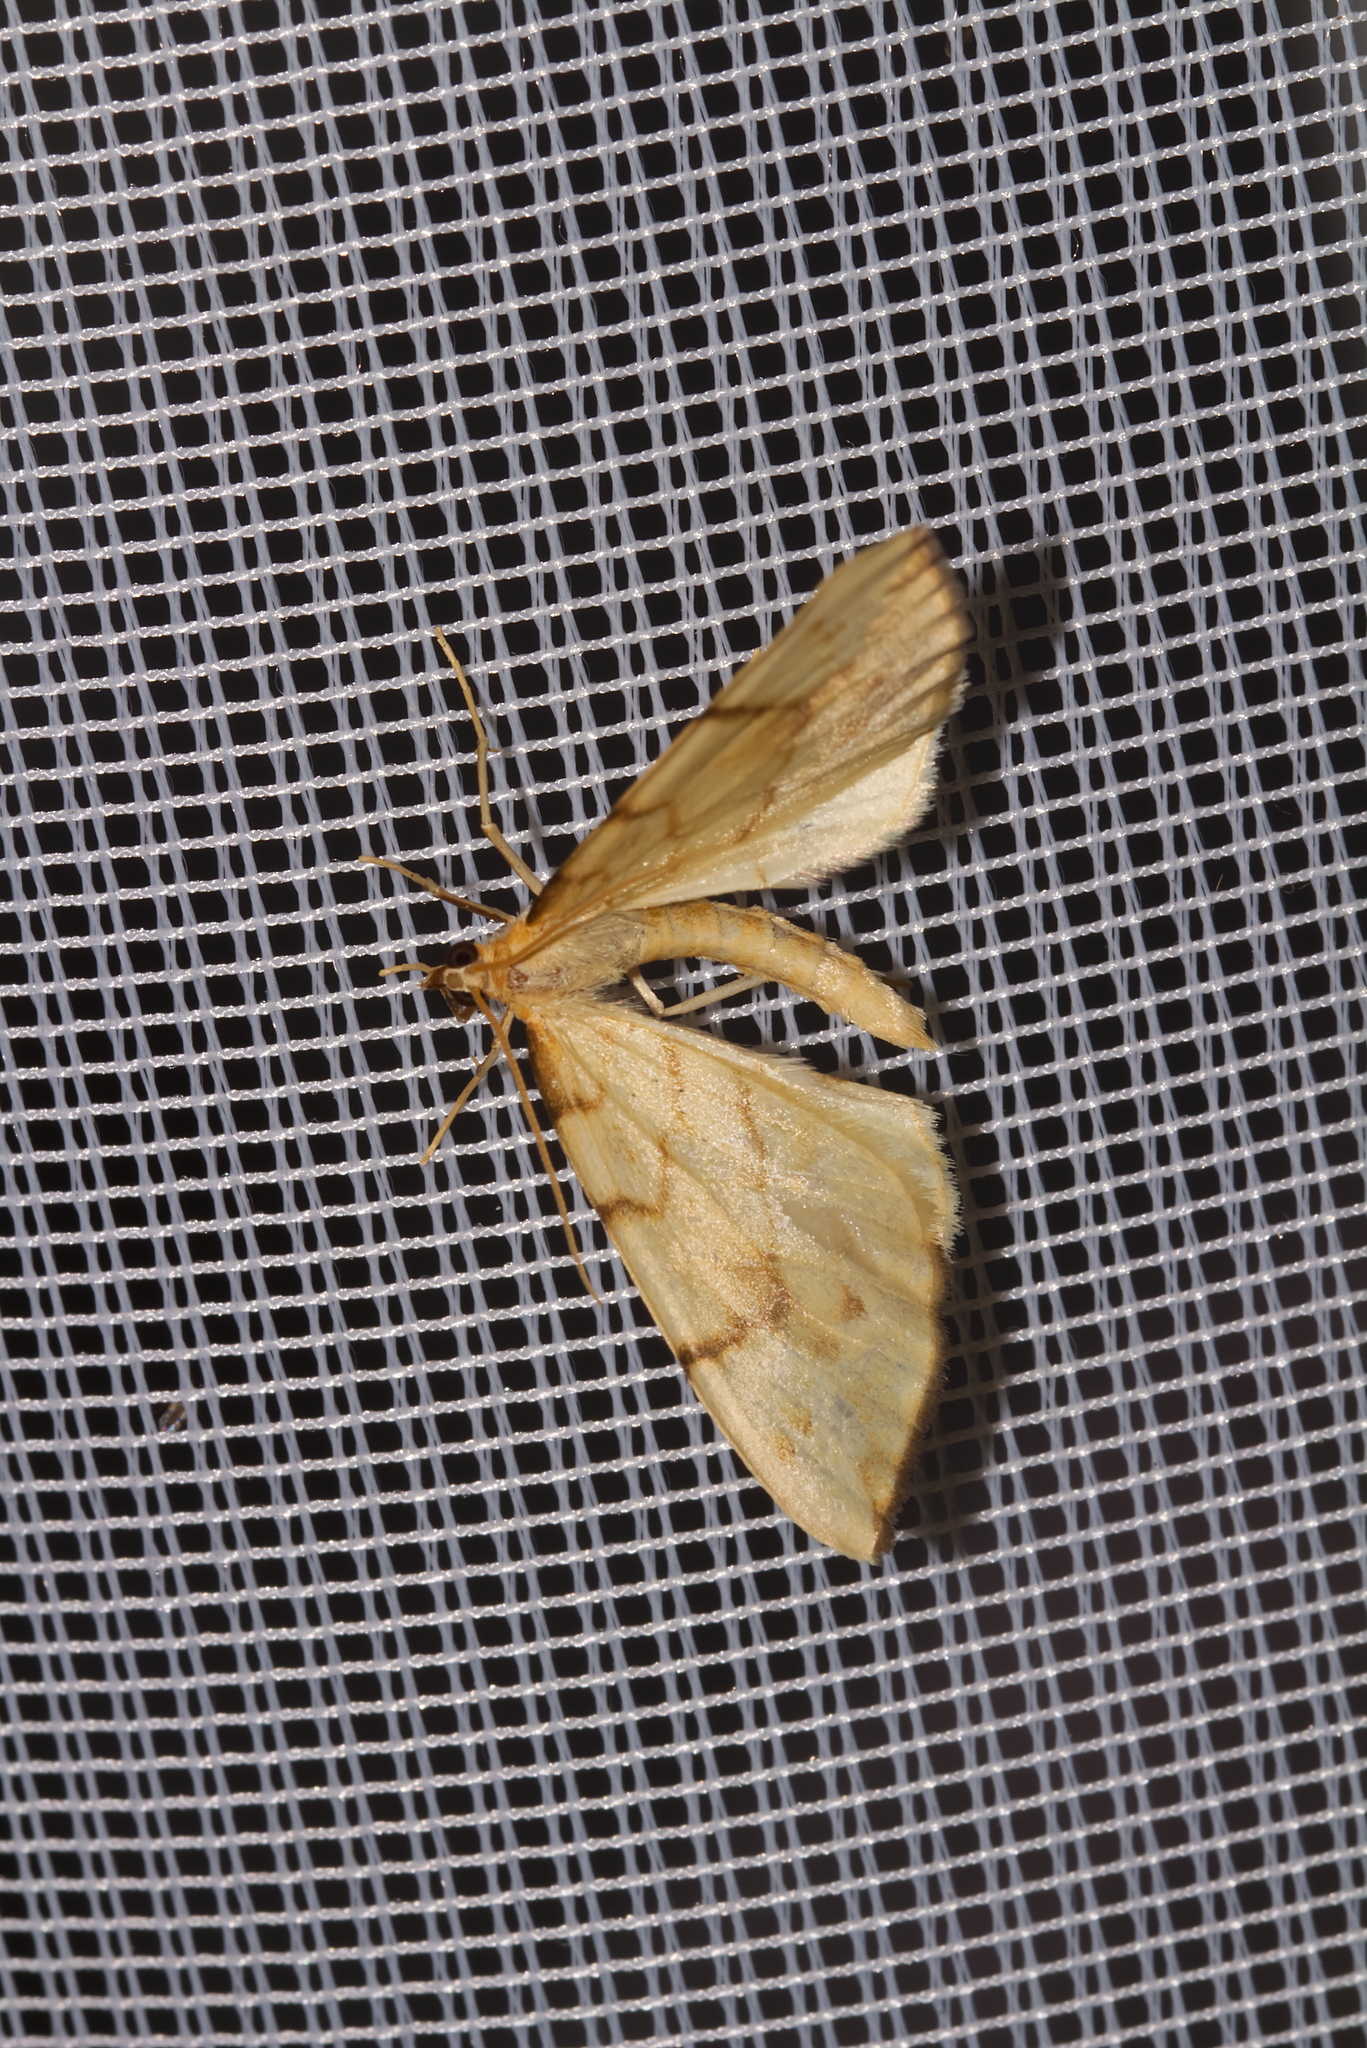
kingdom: Animalia
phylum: Arthropoda
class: Insecta
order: Lepidoptera
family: Geometridae
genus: Eulithis
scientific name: Eulithis pyraliata
